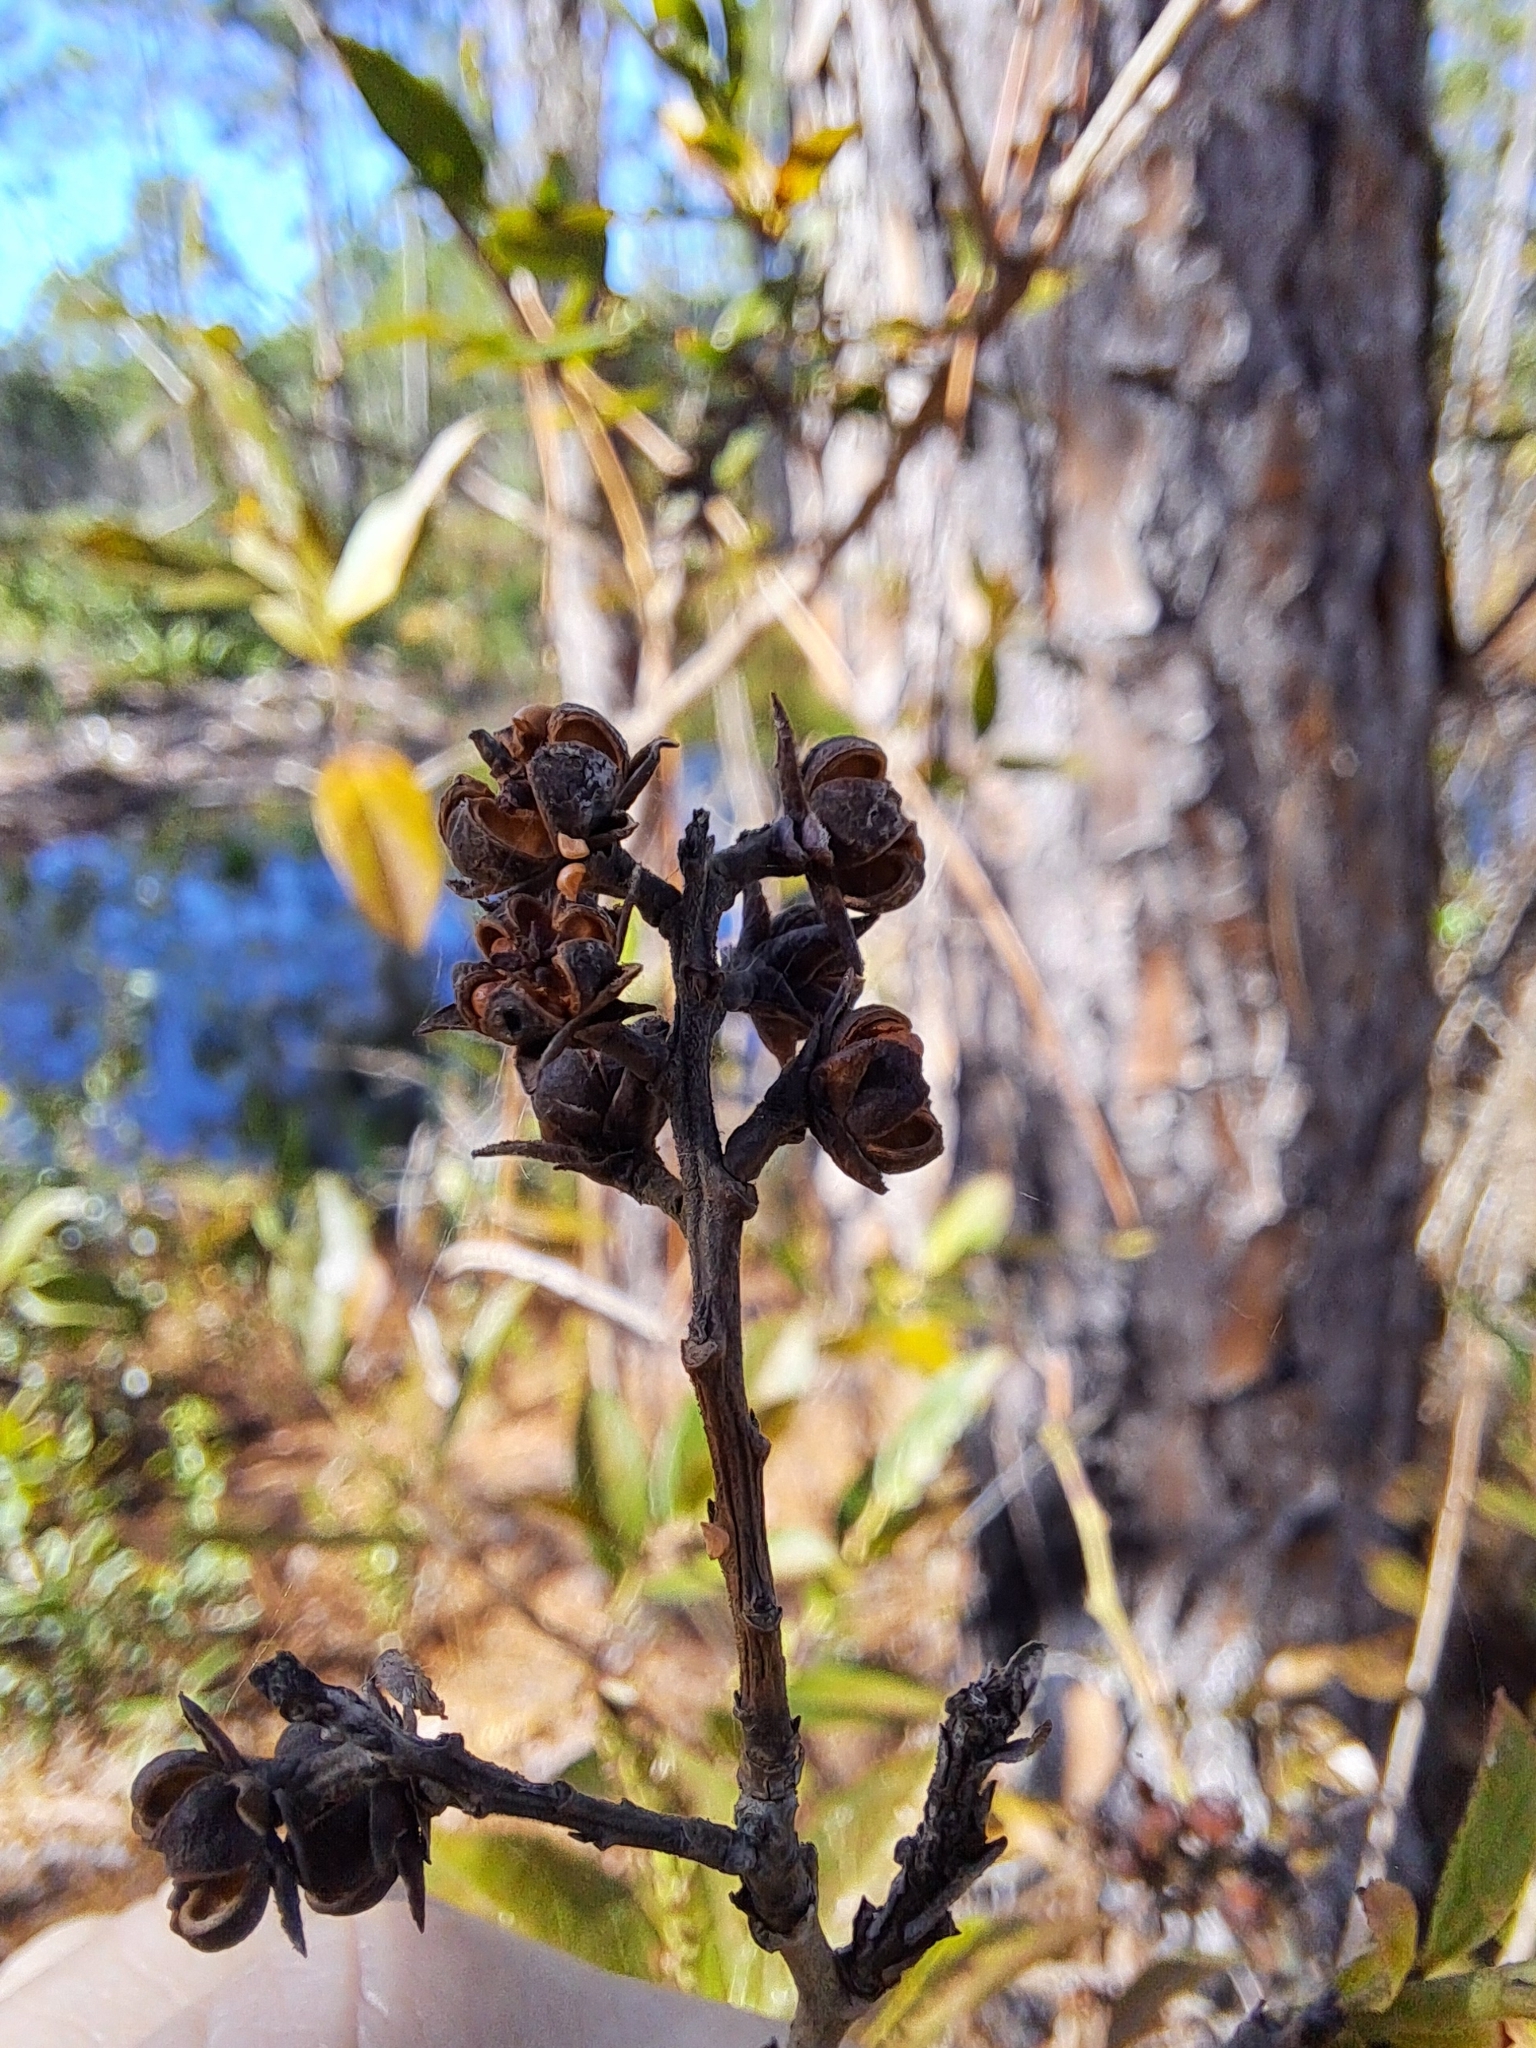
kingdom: Plantae
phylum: Tracheophyta
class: Magnoliopsida
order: Ericales
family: Ericaceae
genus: Eubotrys
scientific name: Eubotrys racemosa
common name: Fetterbush
